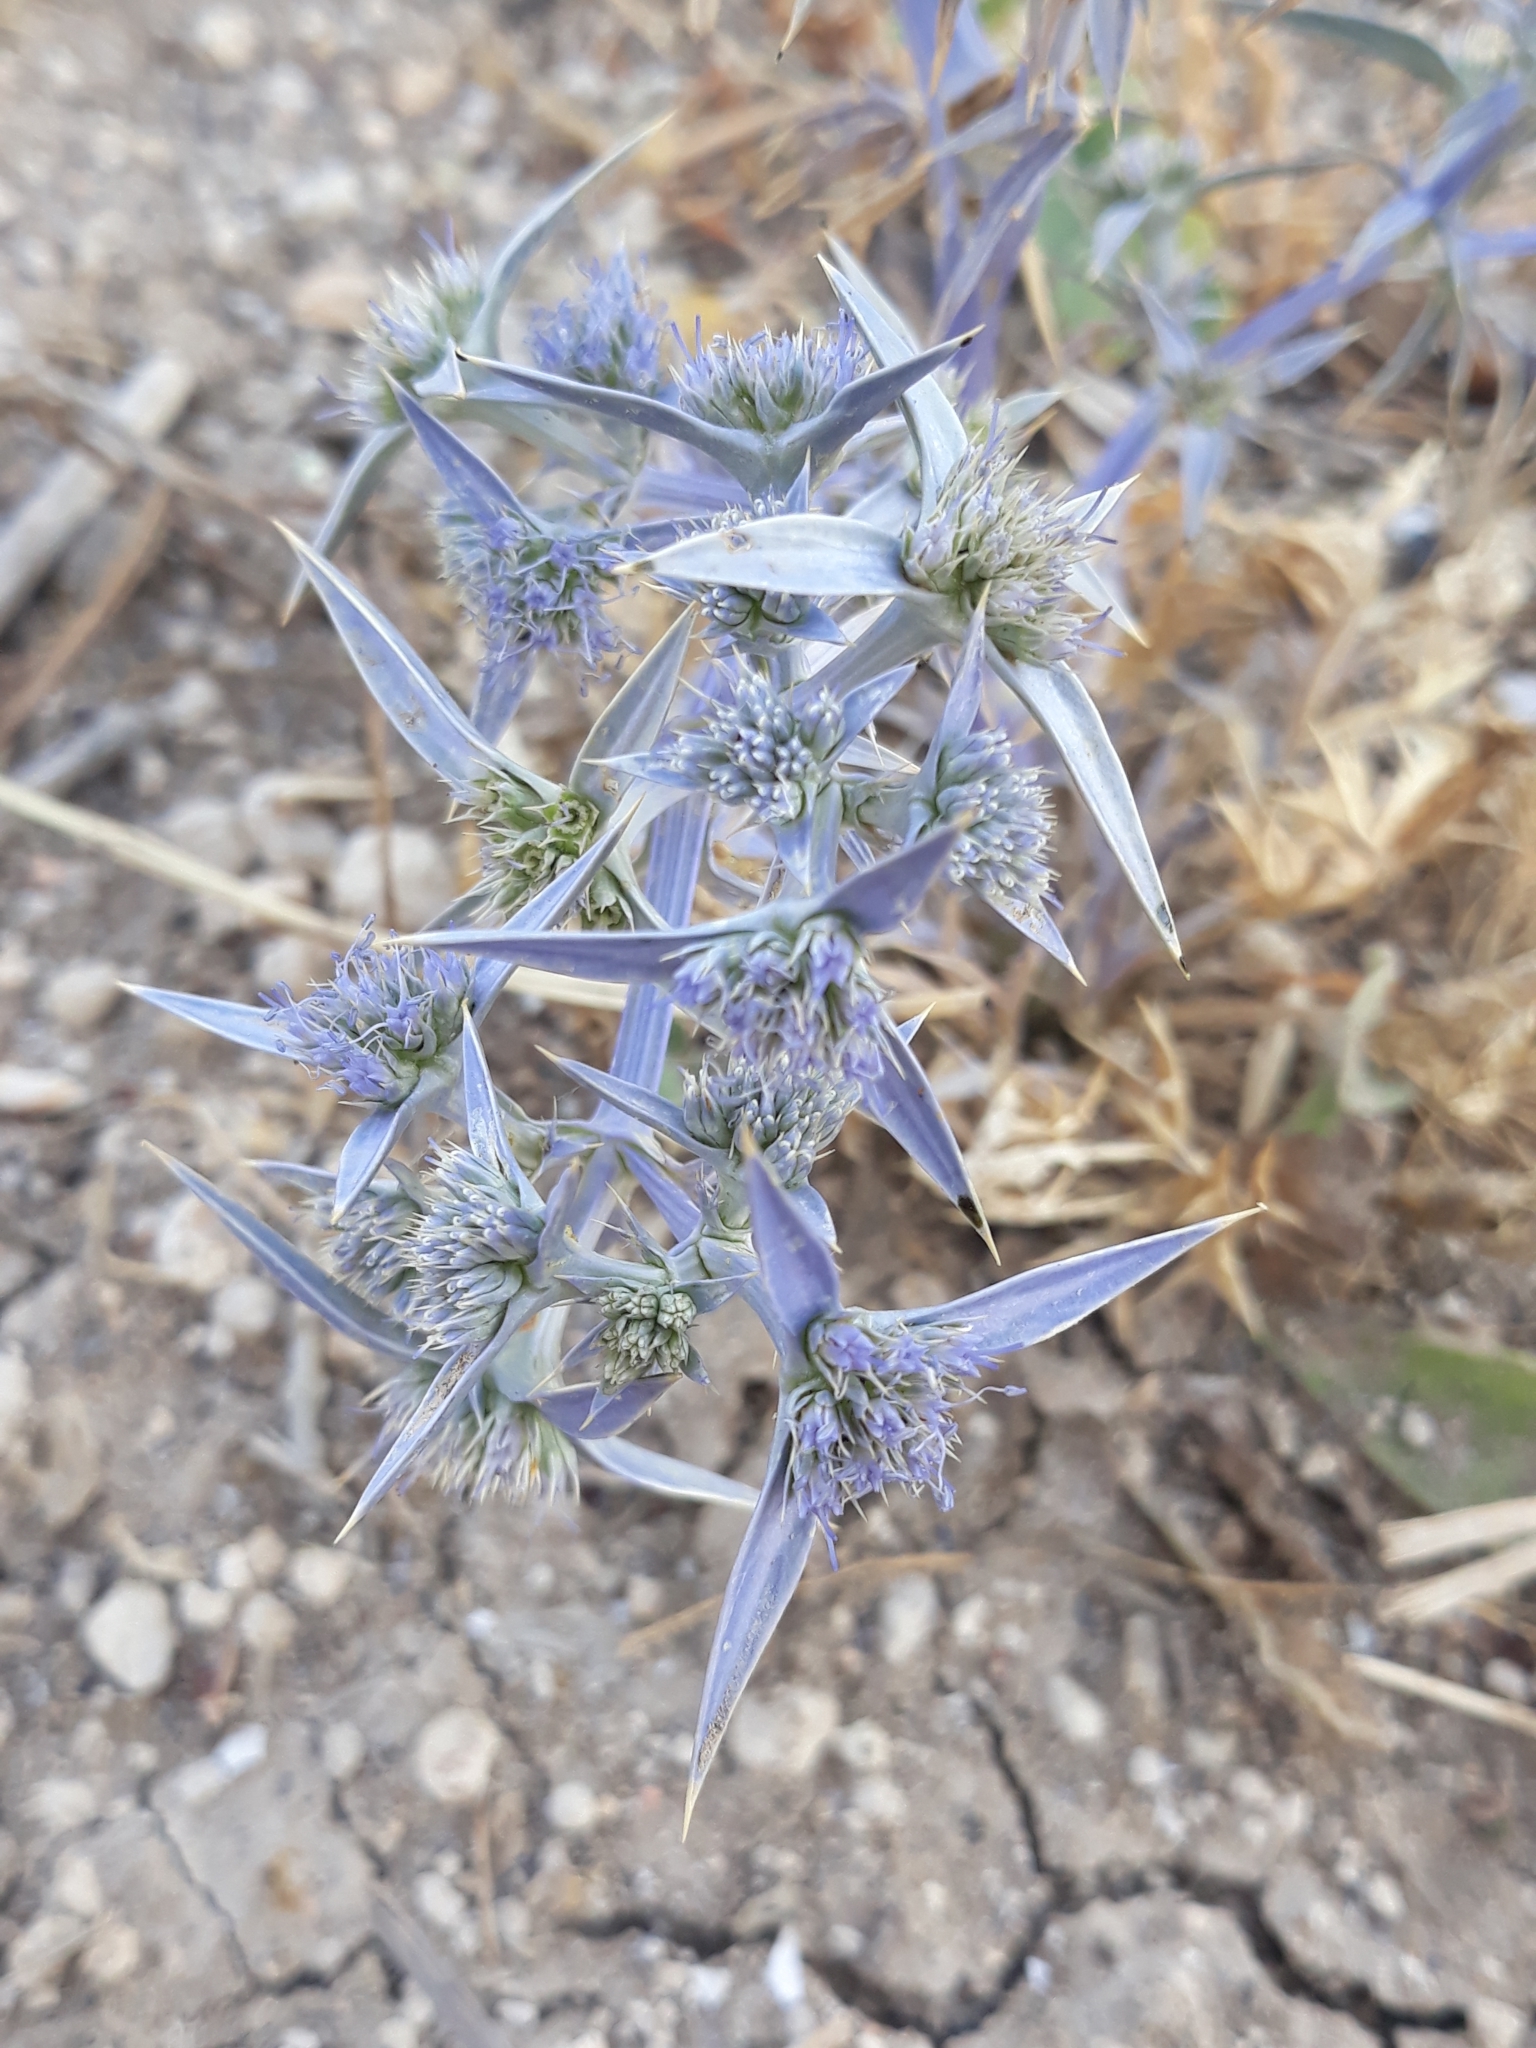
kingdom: Plantae
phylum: Tracheophyta
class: Magnoliopsida
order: Apiales
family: Apiaceae
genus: Eryngium
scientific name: Eryngium triquetrum
